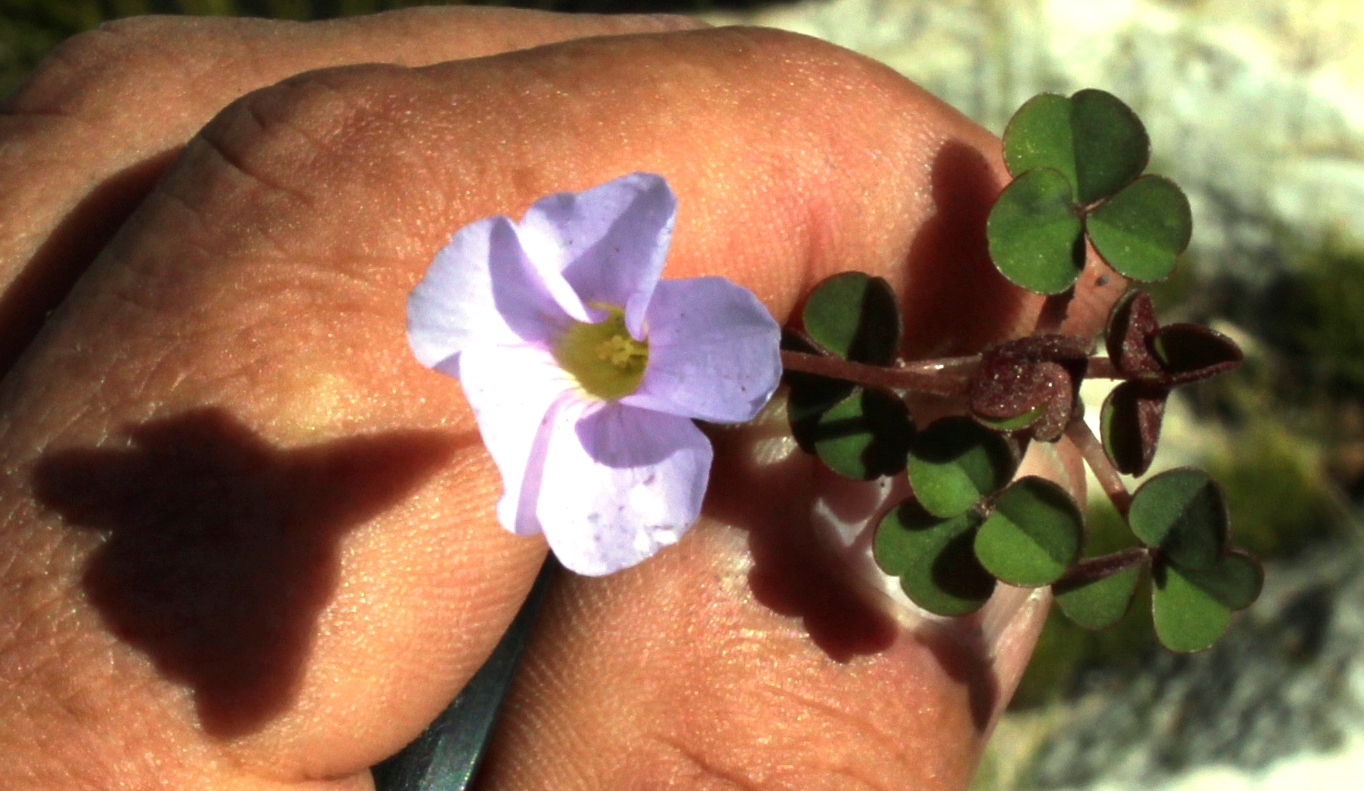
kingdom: Plantae
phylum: Tracheophyta
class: Magnoliopsida
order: Oxalidales
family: Oxalidaceae
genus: Oxalis
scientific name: Oxalis commutata
